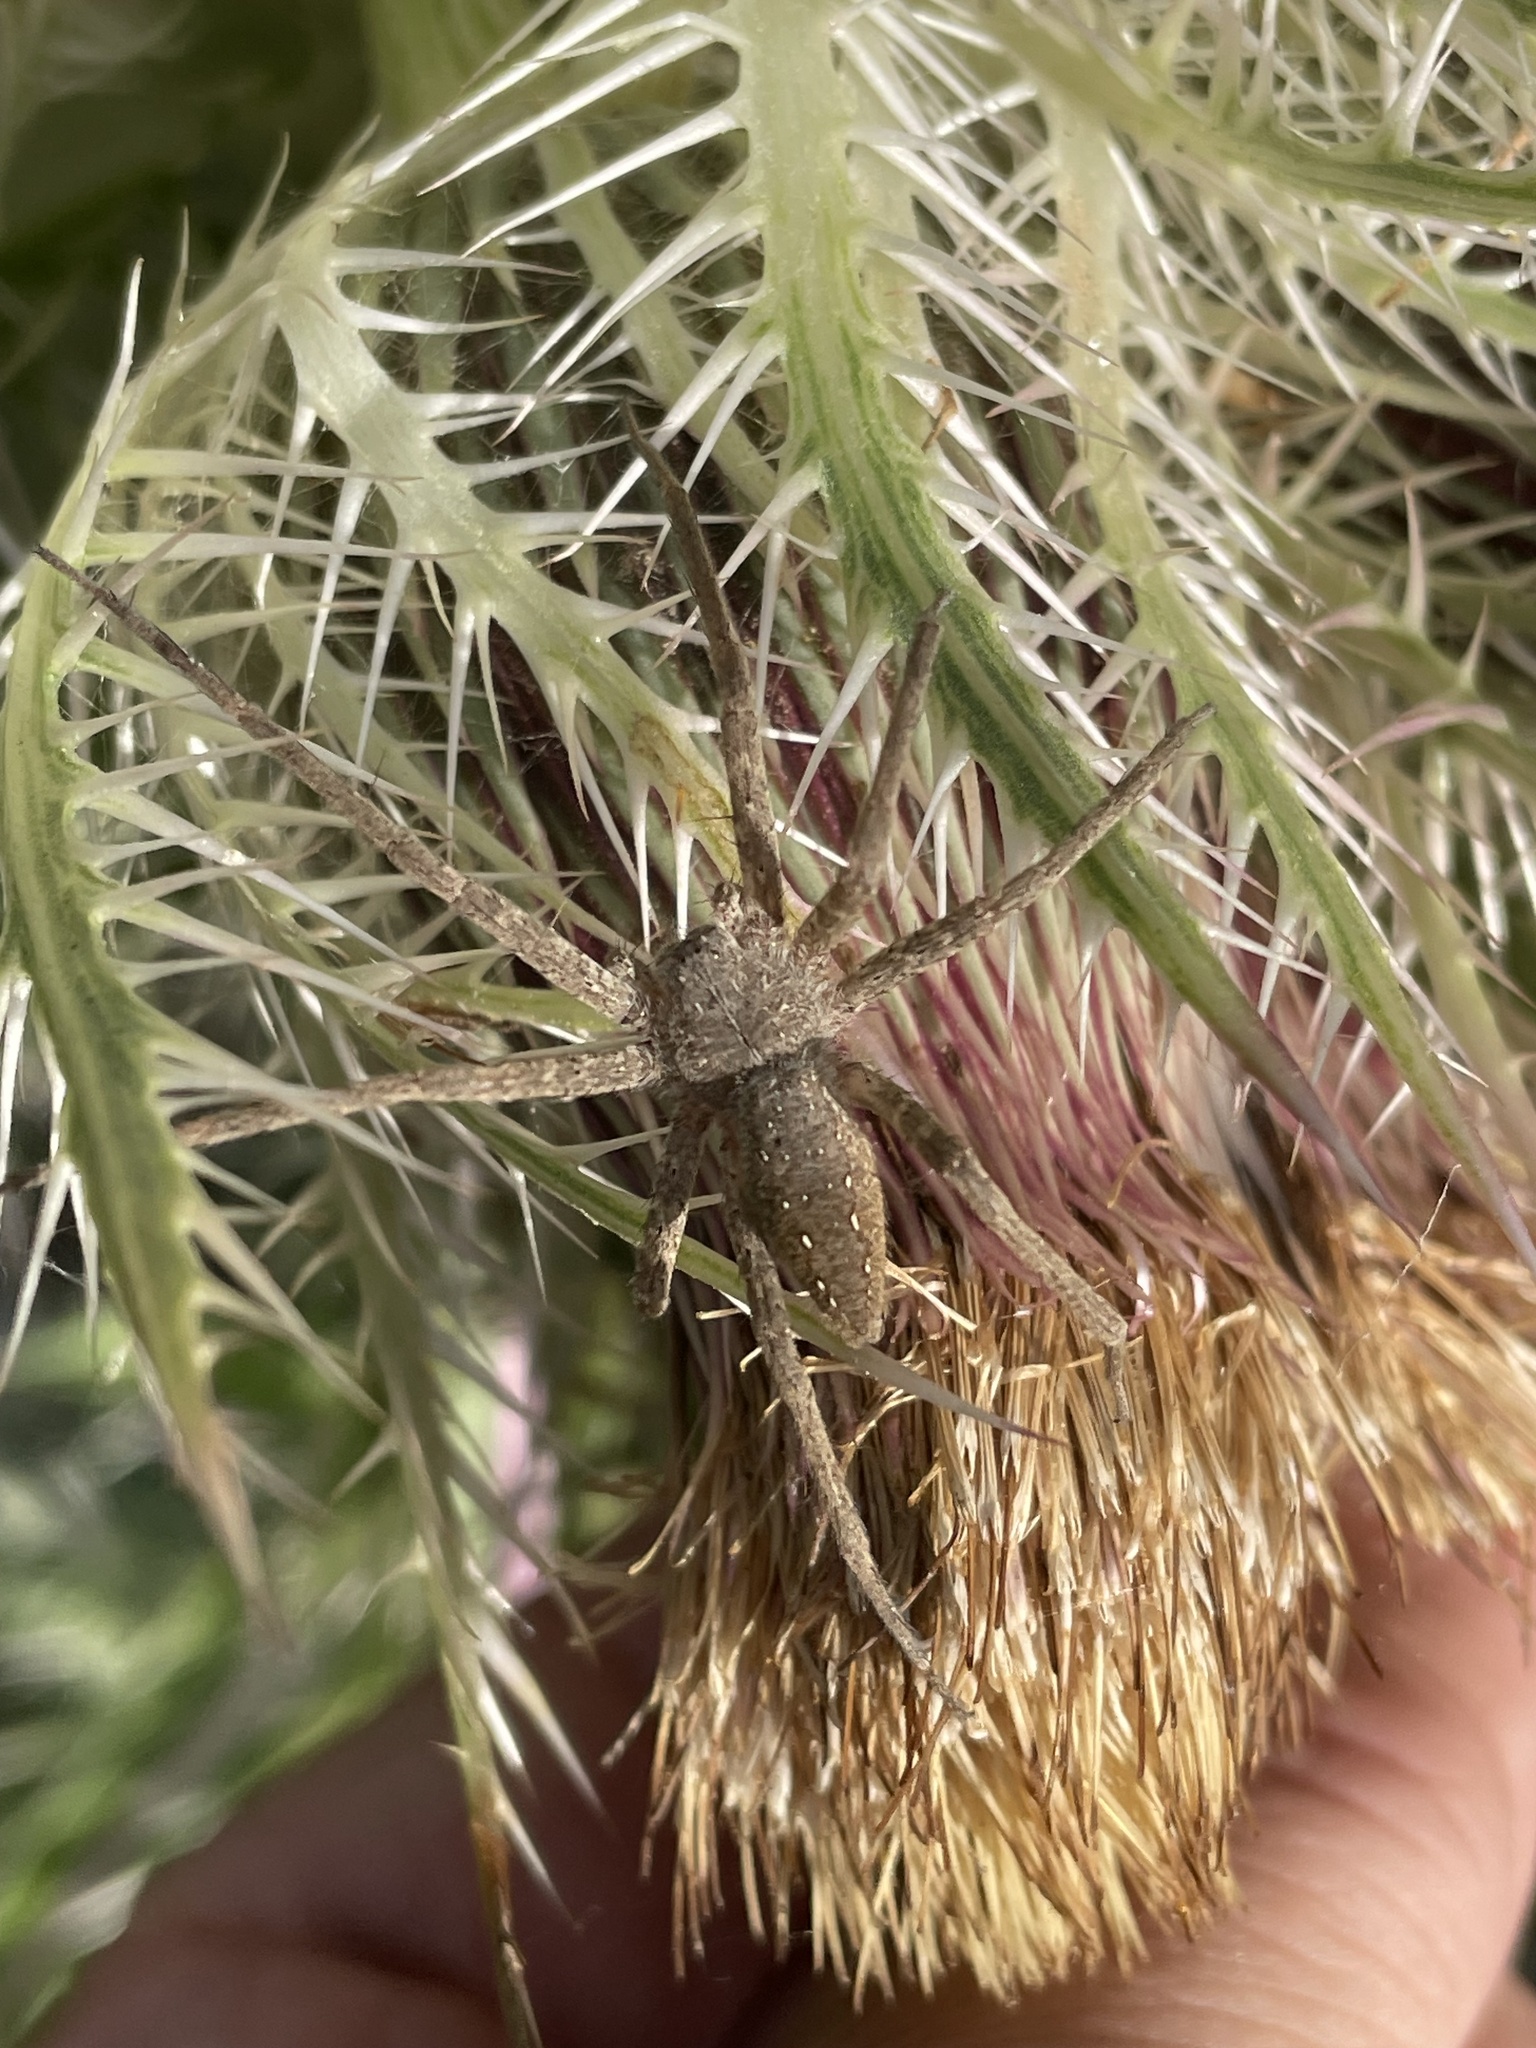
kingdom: Animalia
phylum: Arthropoda
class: Arachnida
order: Araneae
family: Pisauridae
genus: Pisaurina
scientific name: Pisaurina mira
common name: American nursery web spider
